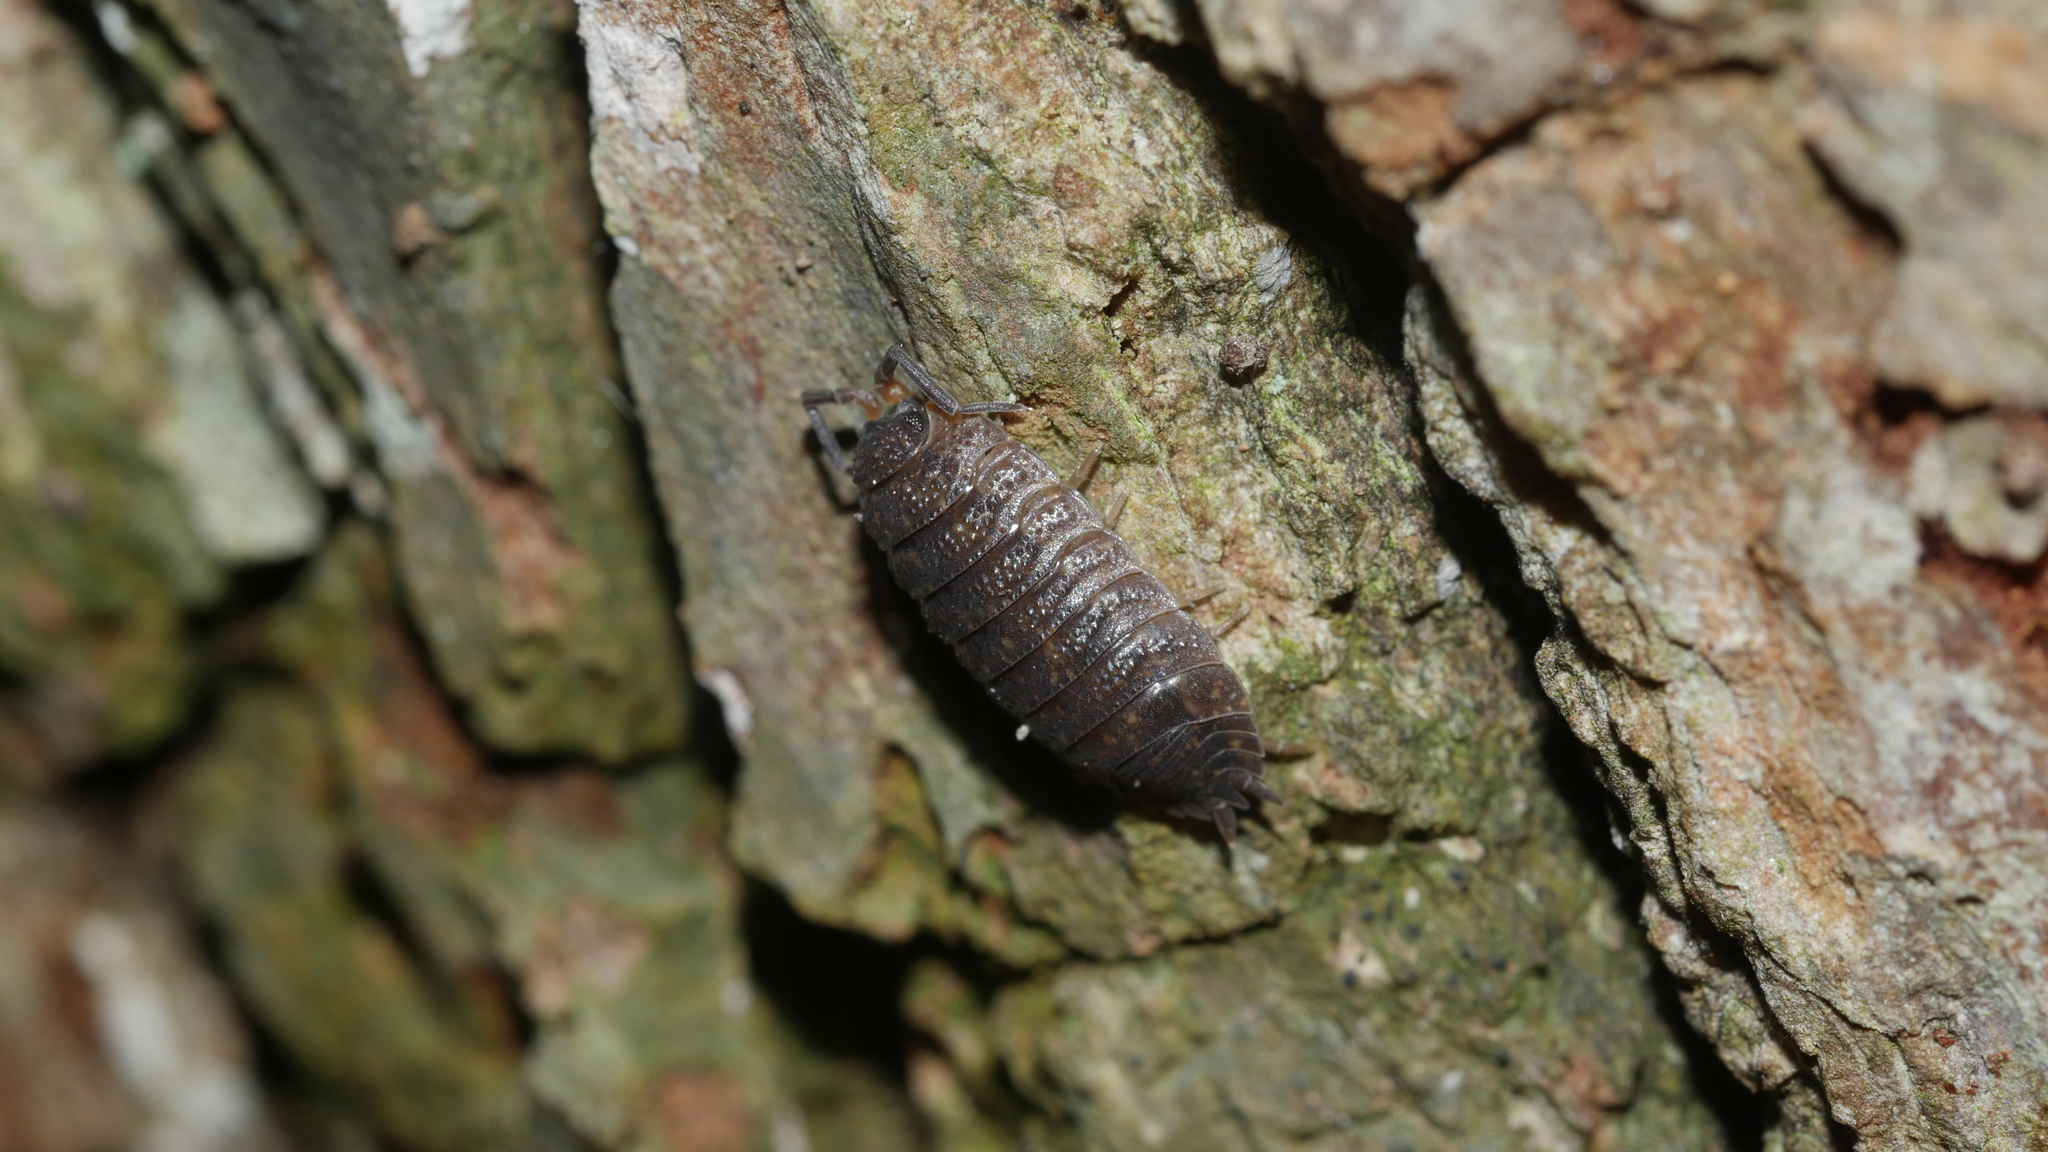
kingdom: Animalia
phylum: Arthropoda
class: Malacostraca
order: Isopoda
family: Porcellionidae
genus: Porcellio
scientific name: Porcellio scaber
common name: Common rough woodlouse
